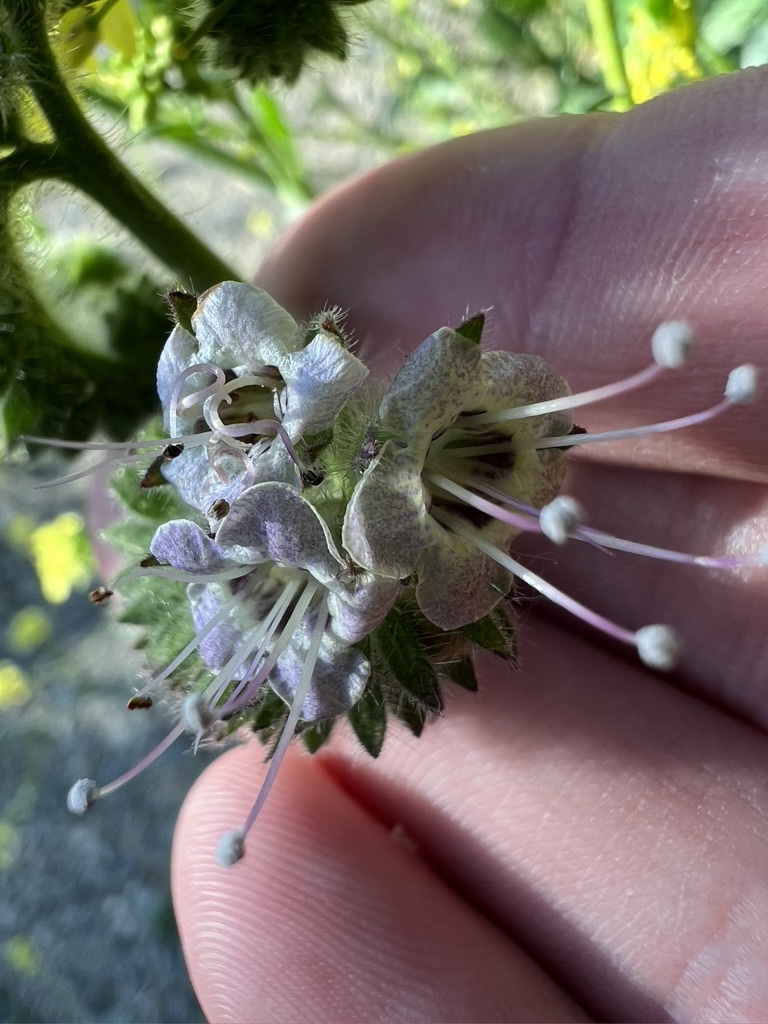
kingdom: Plantae
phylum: Tracheophyta
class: Magnoliopsida
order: Boraginales
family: Hydrophyllaceae
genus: Phacelia
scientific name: Phacelia ramosissima
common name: Branching phacelia
